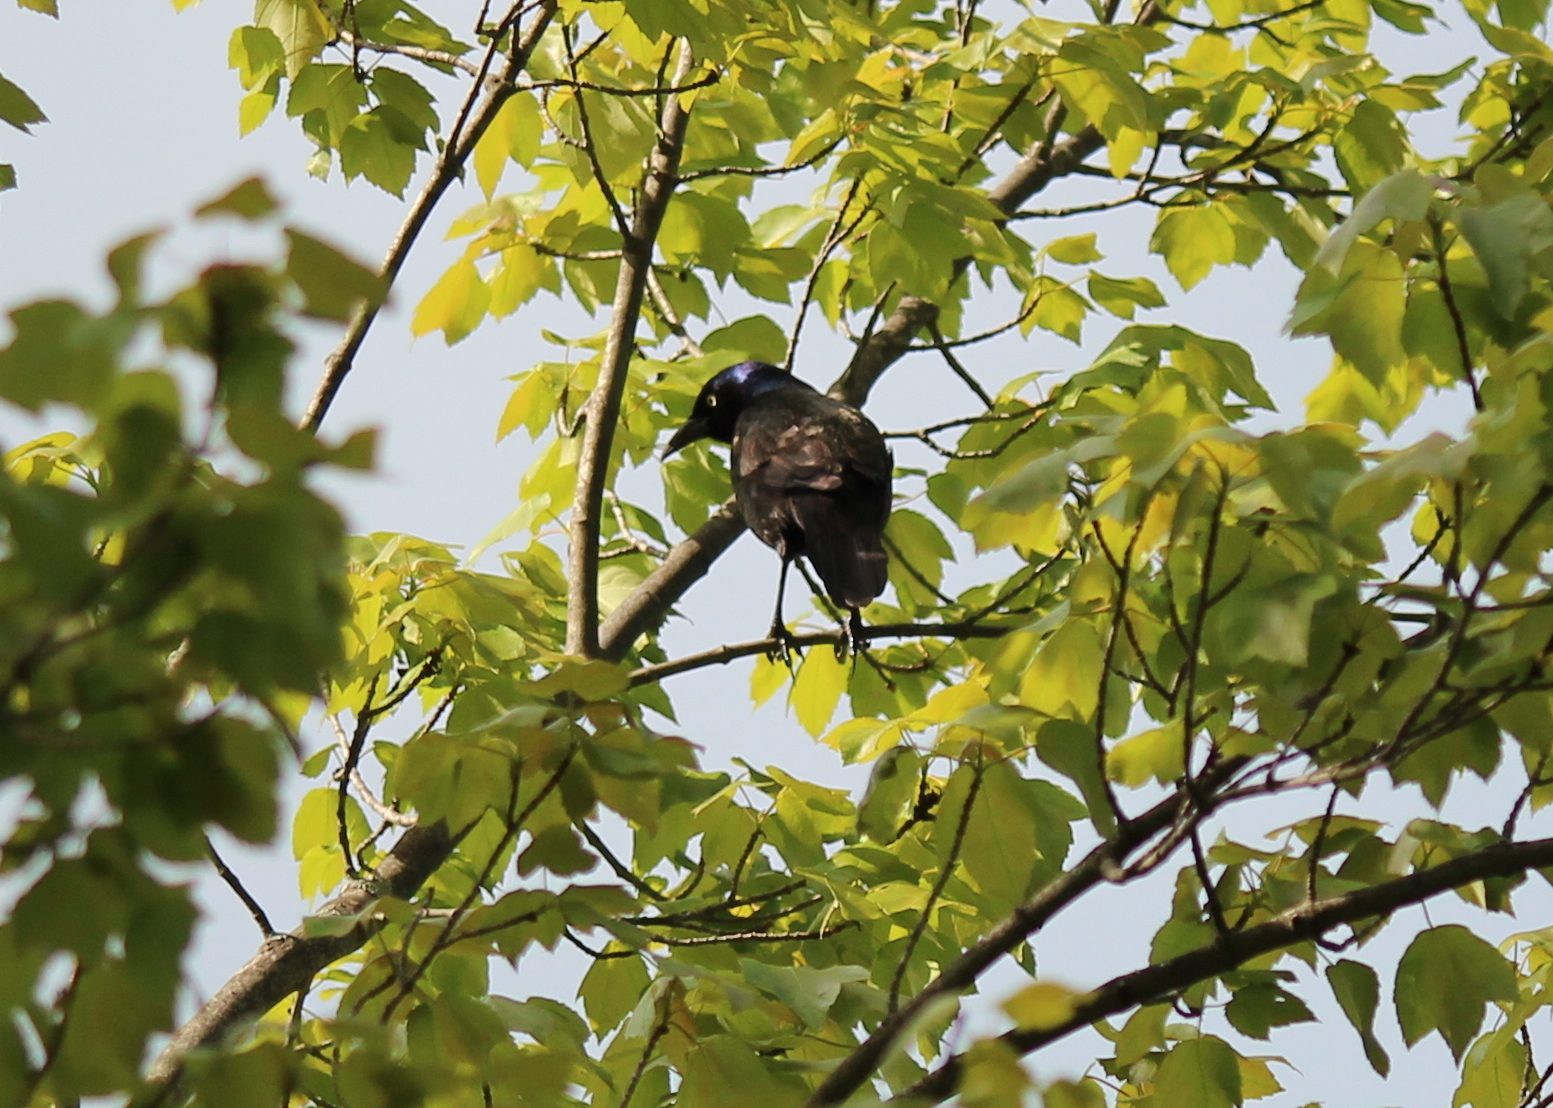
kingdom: Animalia
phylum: Chordata
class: Aves
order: Passeriformes
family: Icteridae
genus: Quiscalus
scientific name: Quiscalus quiscula
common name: Common grackle
